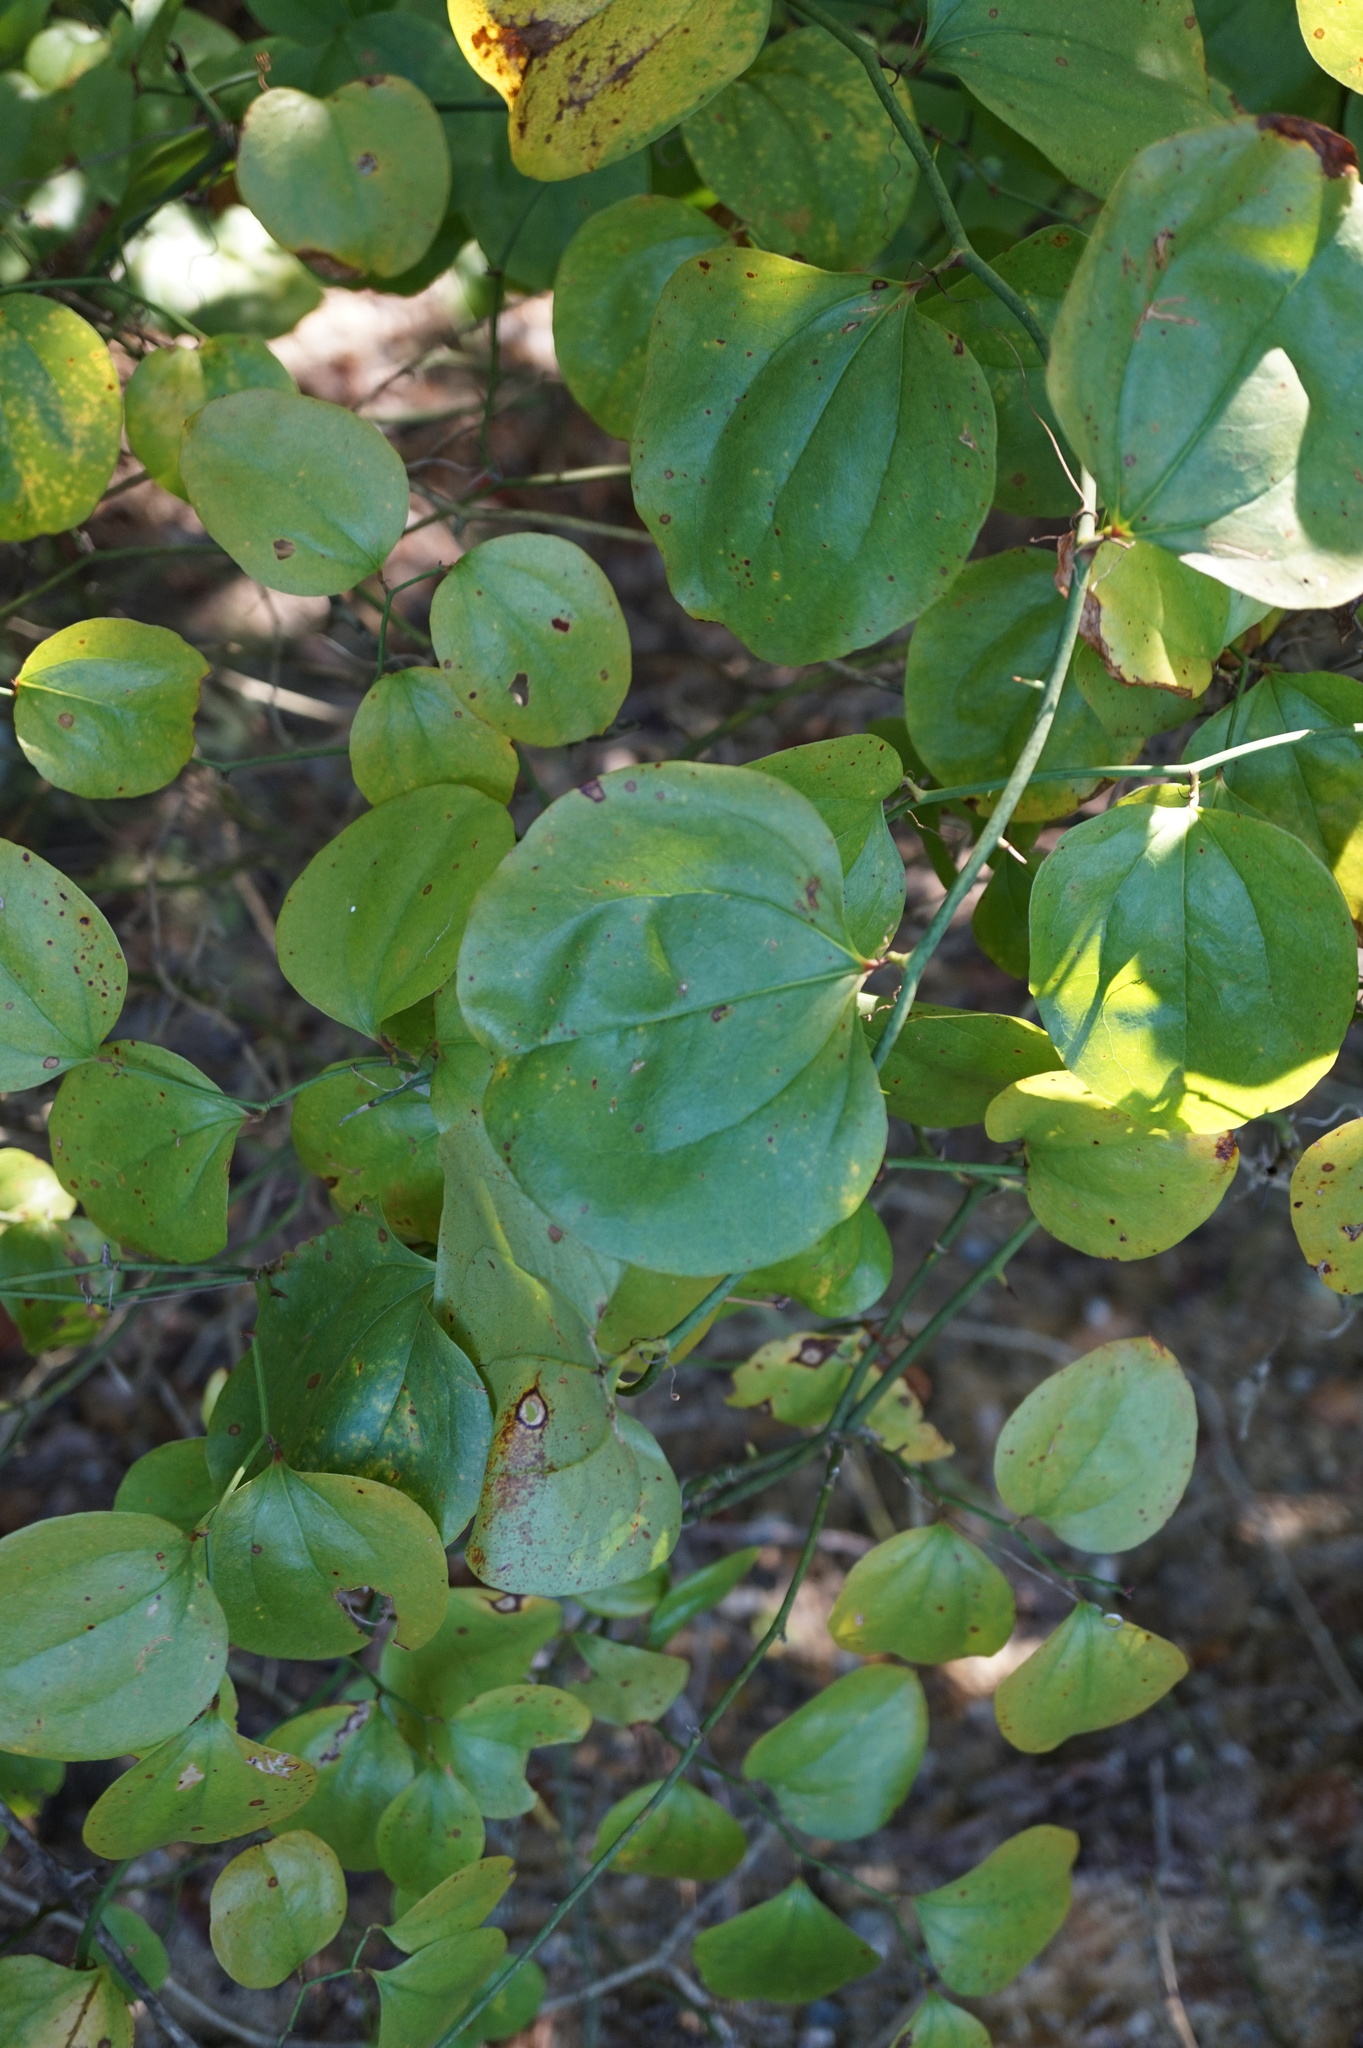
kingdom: Plantae
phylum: Tracheophyta
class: Liliopsida
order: Liliales
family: Smilacaceae
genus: Smilax
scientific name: Smilax rotundifolia
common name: Bullbriar
